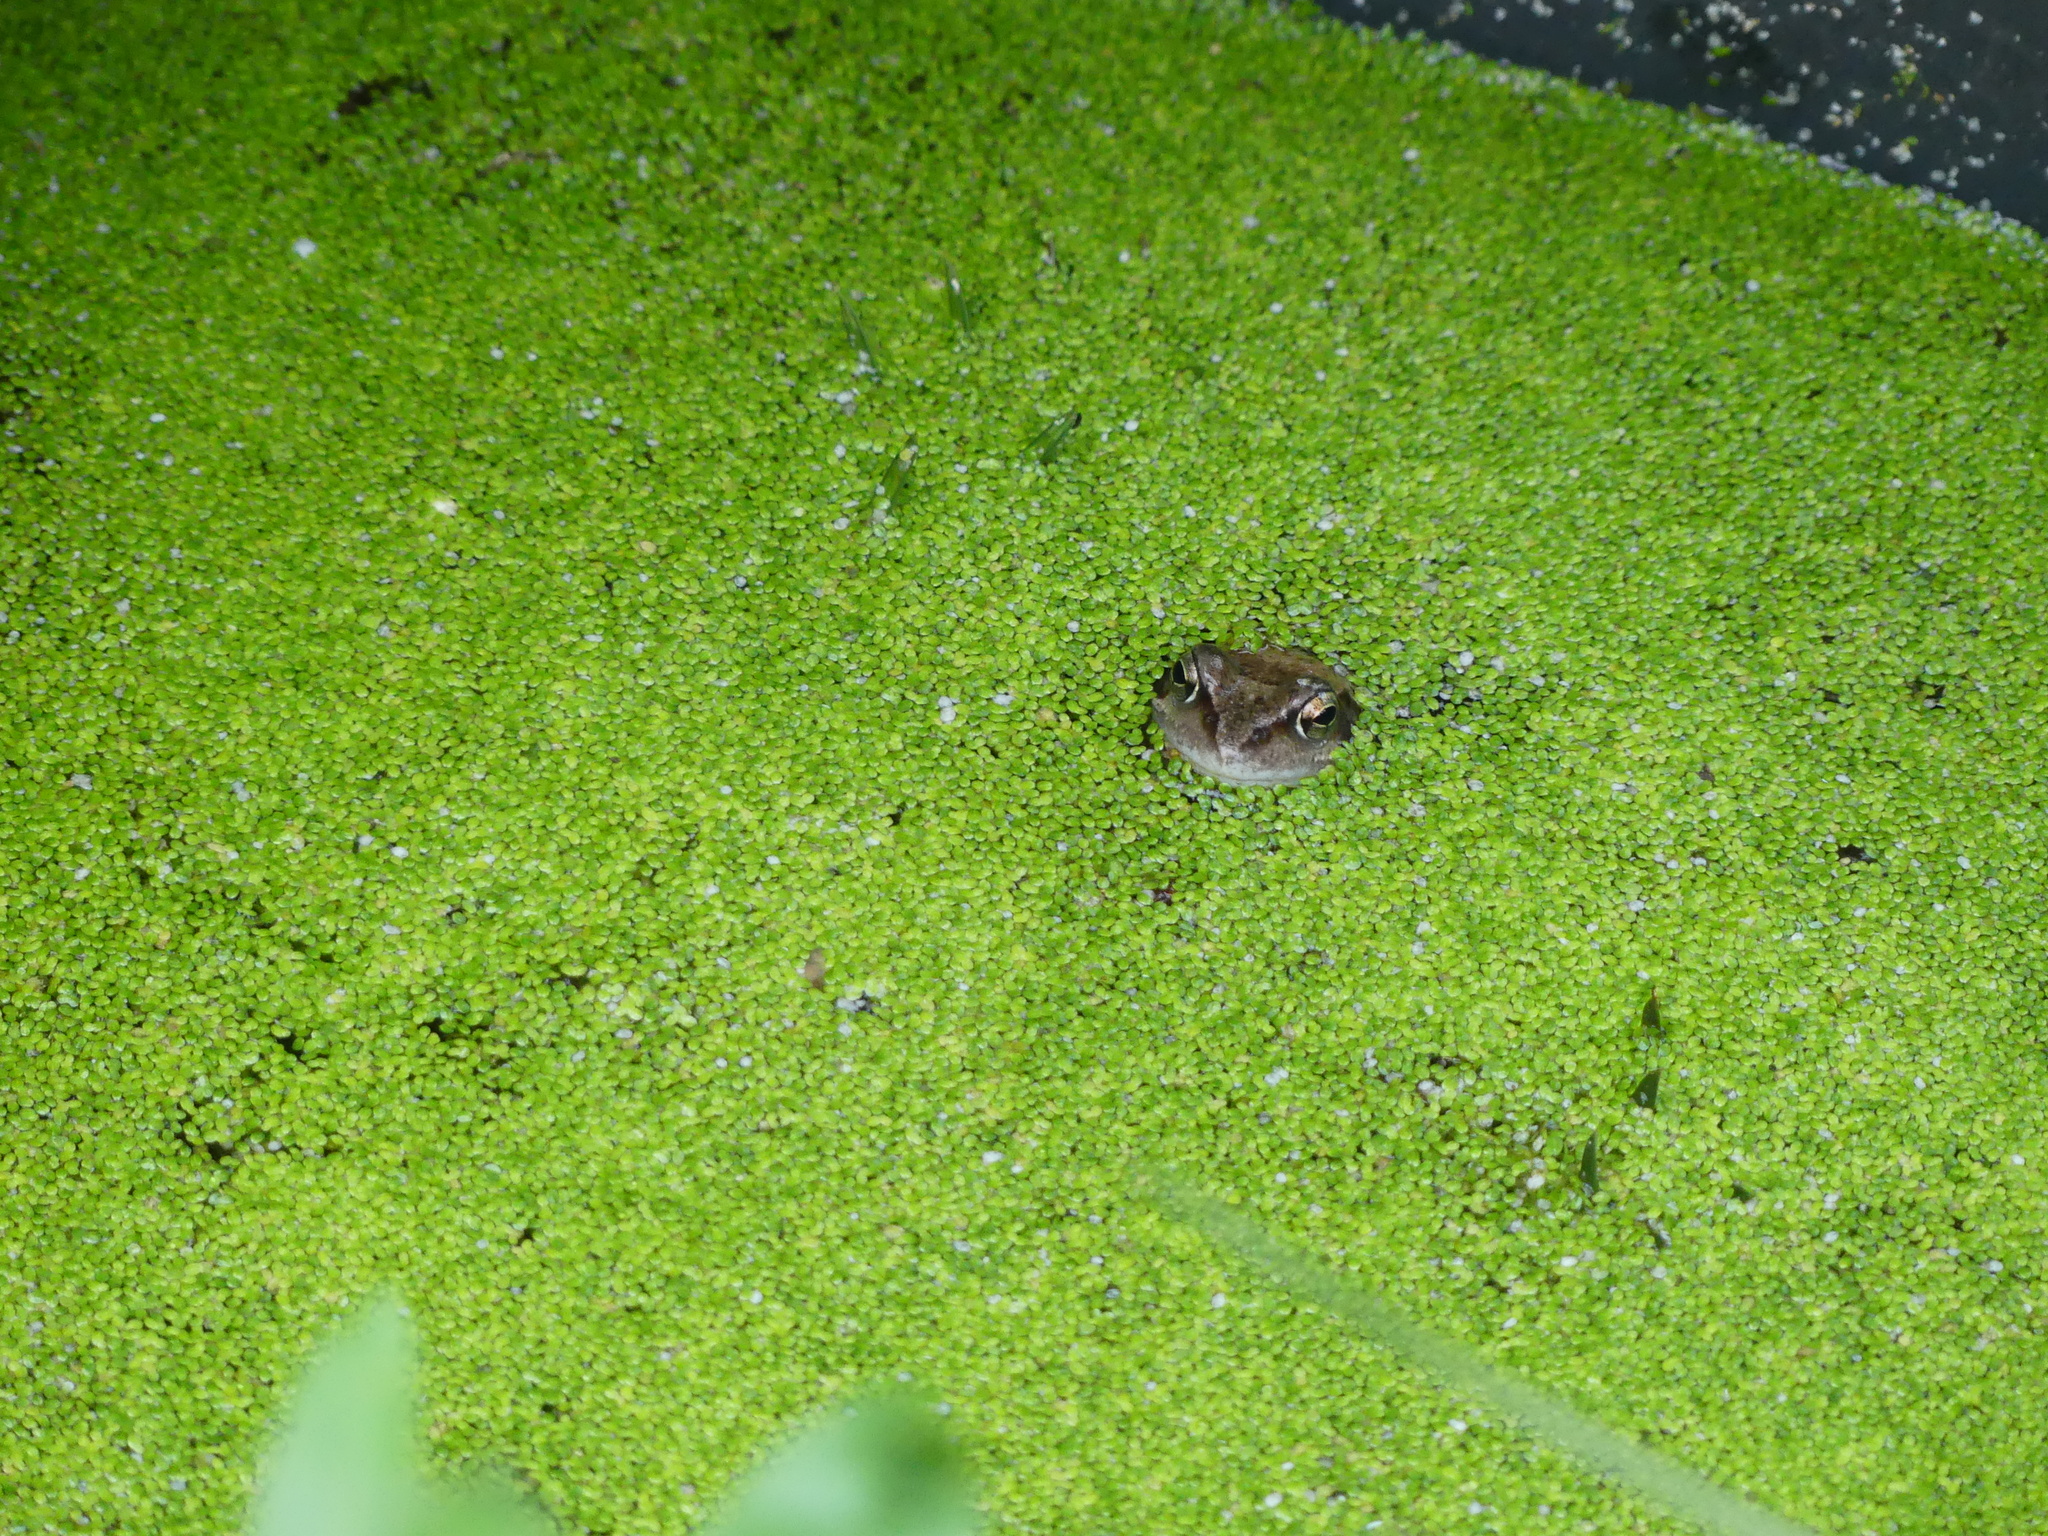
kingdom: Animalia
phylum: Chordata
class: Amphibia
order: Anura
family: Ranidae
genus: Rana
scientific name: Rana temporaria
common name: Common frog
